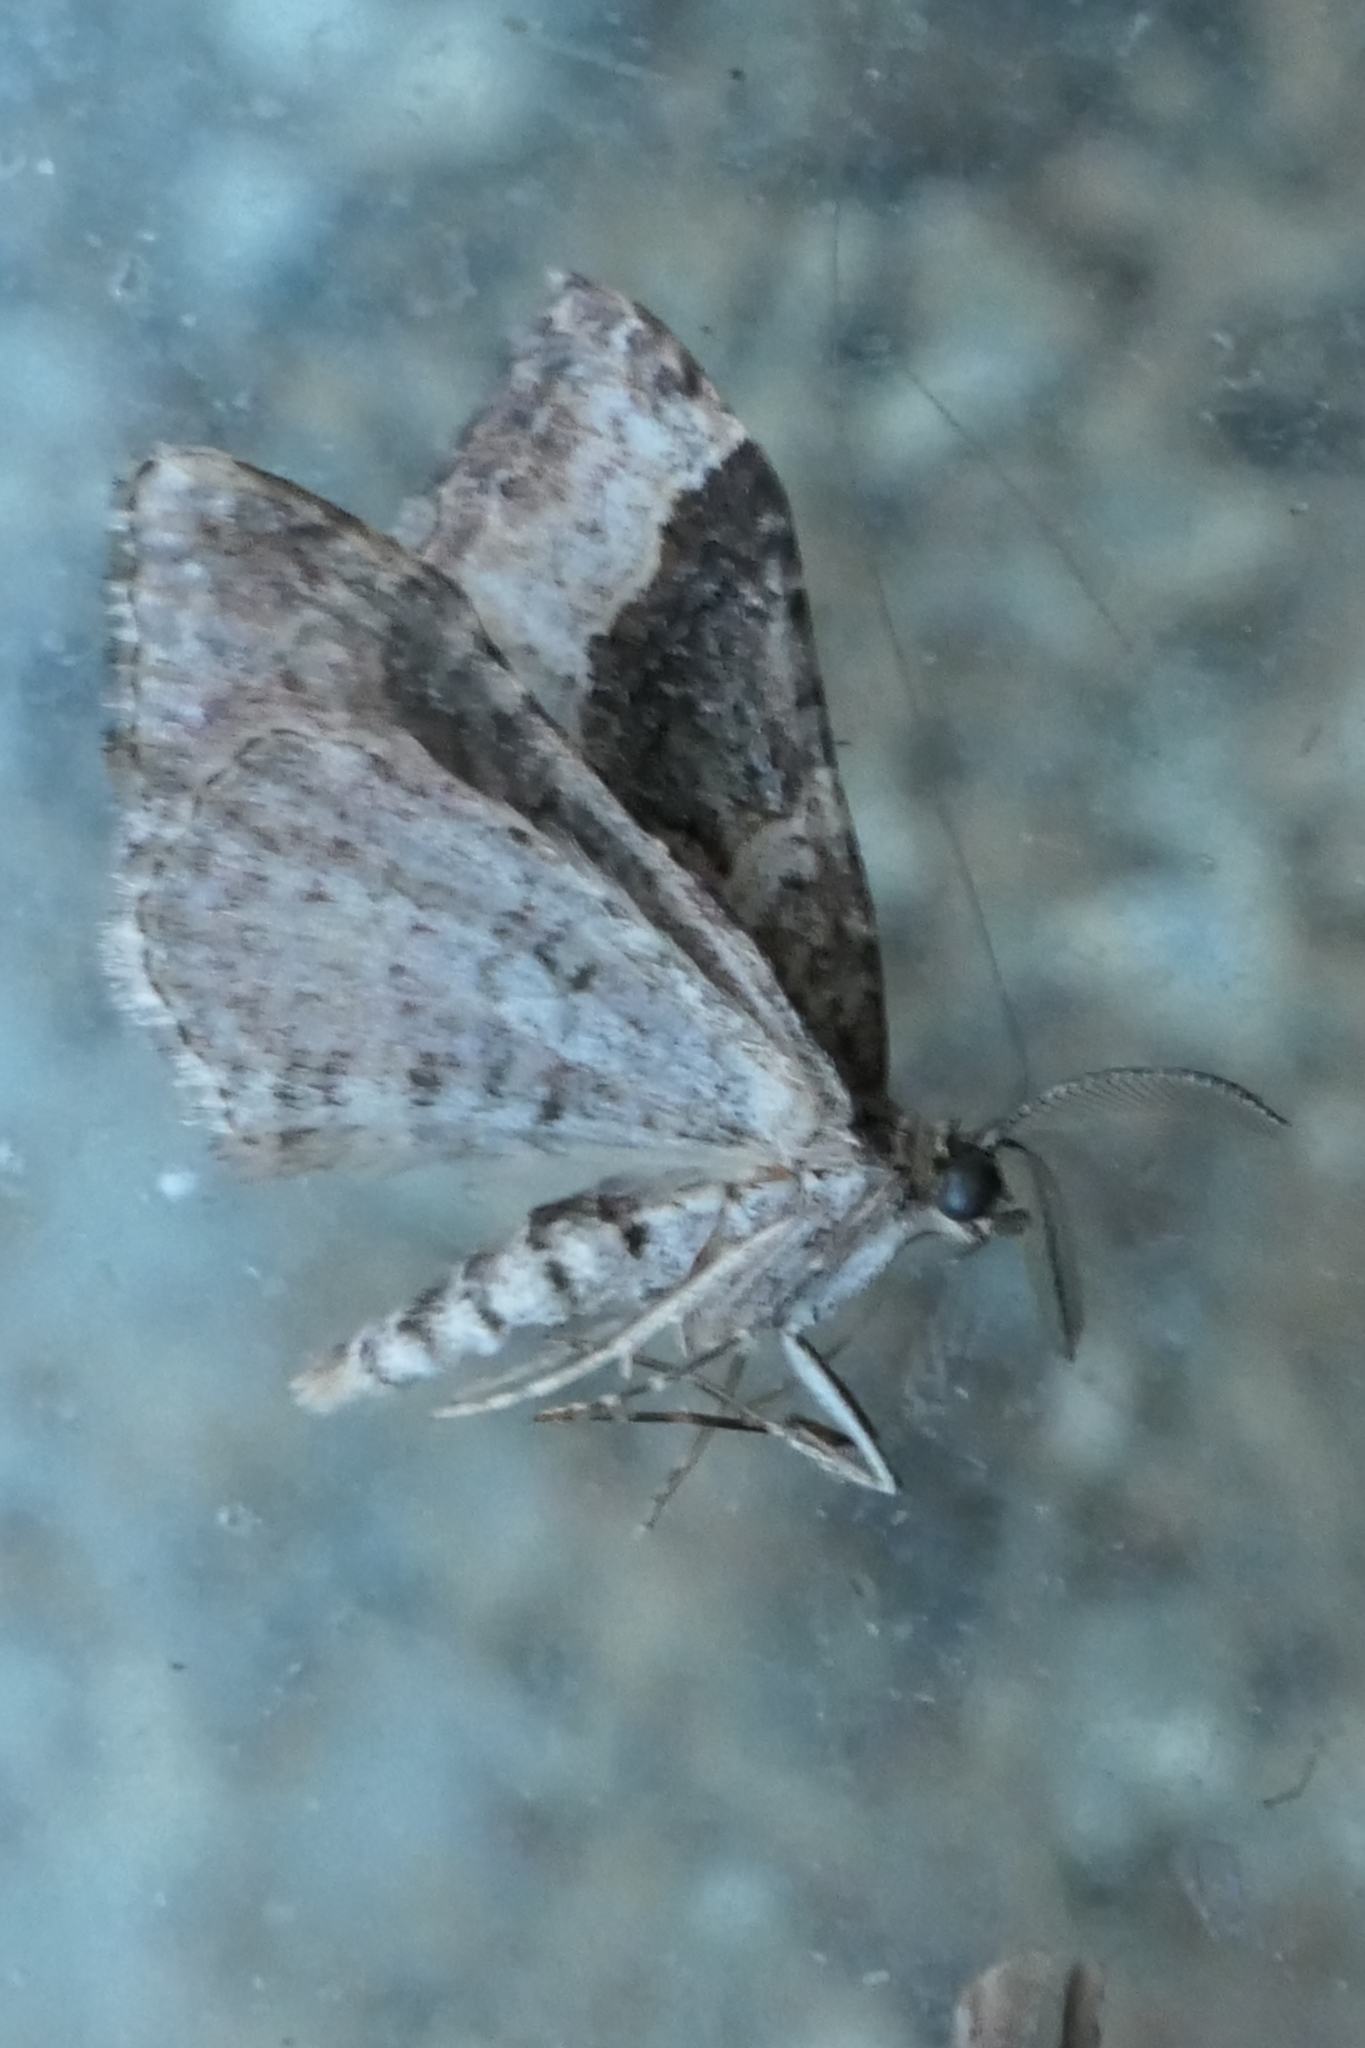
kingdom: Animalia
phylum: Arthropoda
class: Insecta
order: Lepidoptera
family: Geometridae
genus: Epyaxa
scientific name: Epyaxa lucidata
